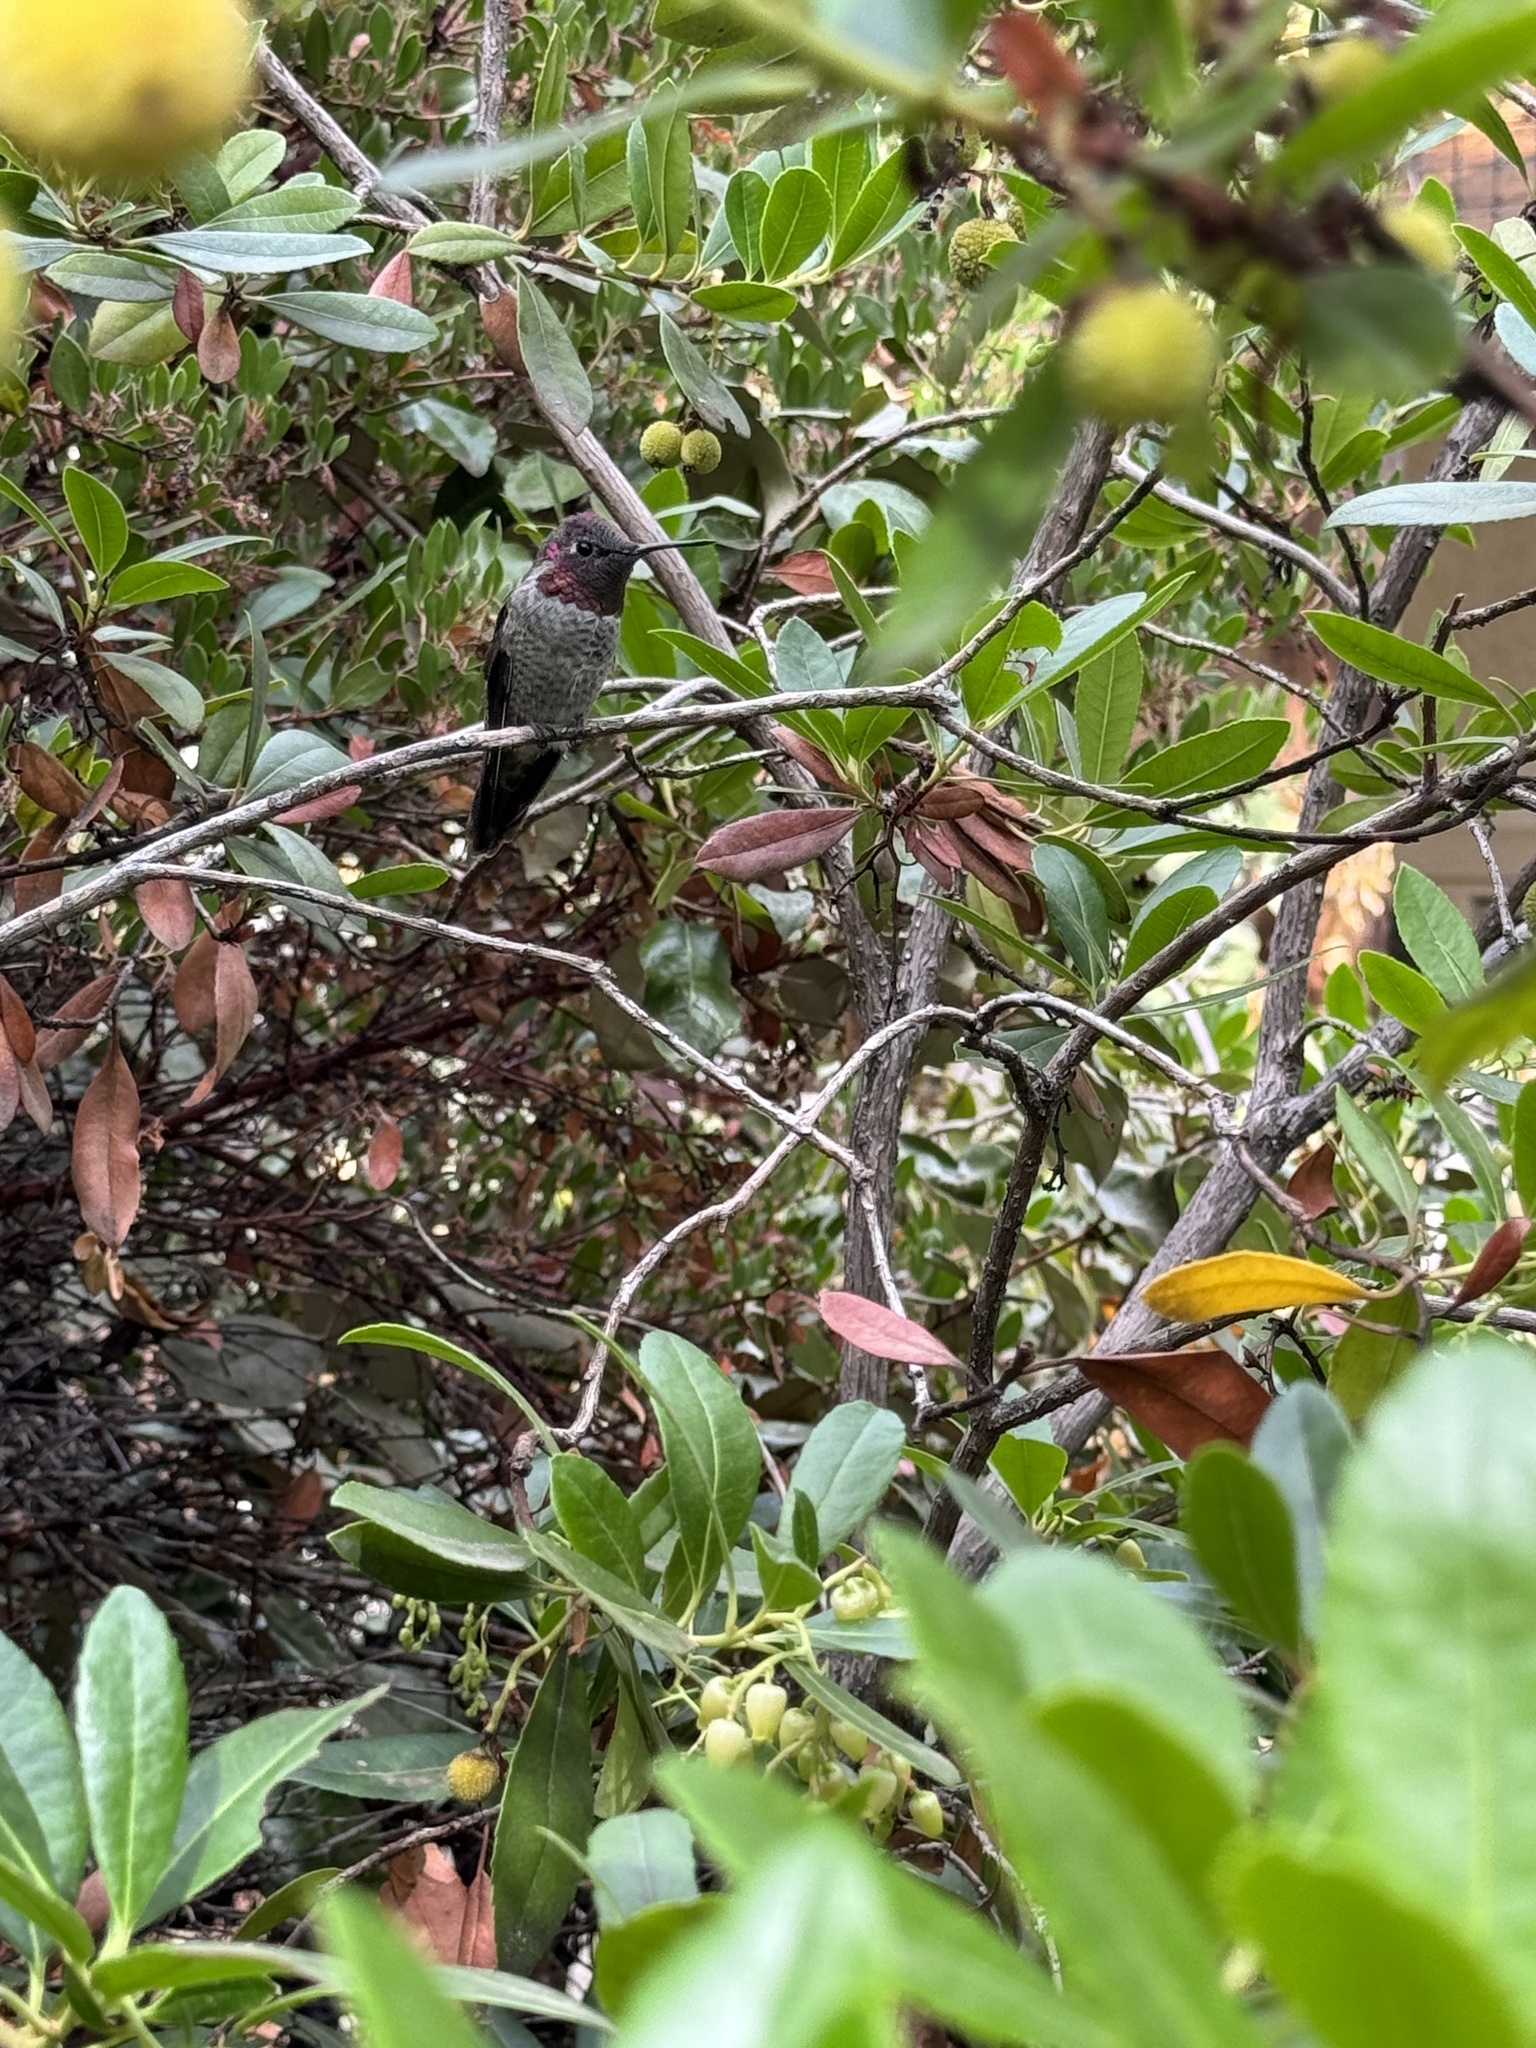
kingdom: Animalia
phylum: Chordata
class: Aves
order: Apodiformes
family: Trochilidae
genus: Calypte
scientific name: Calypte anna
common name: Anna's hummingbird
